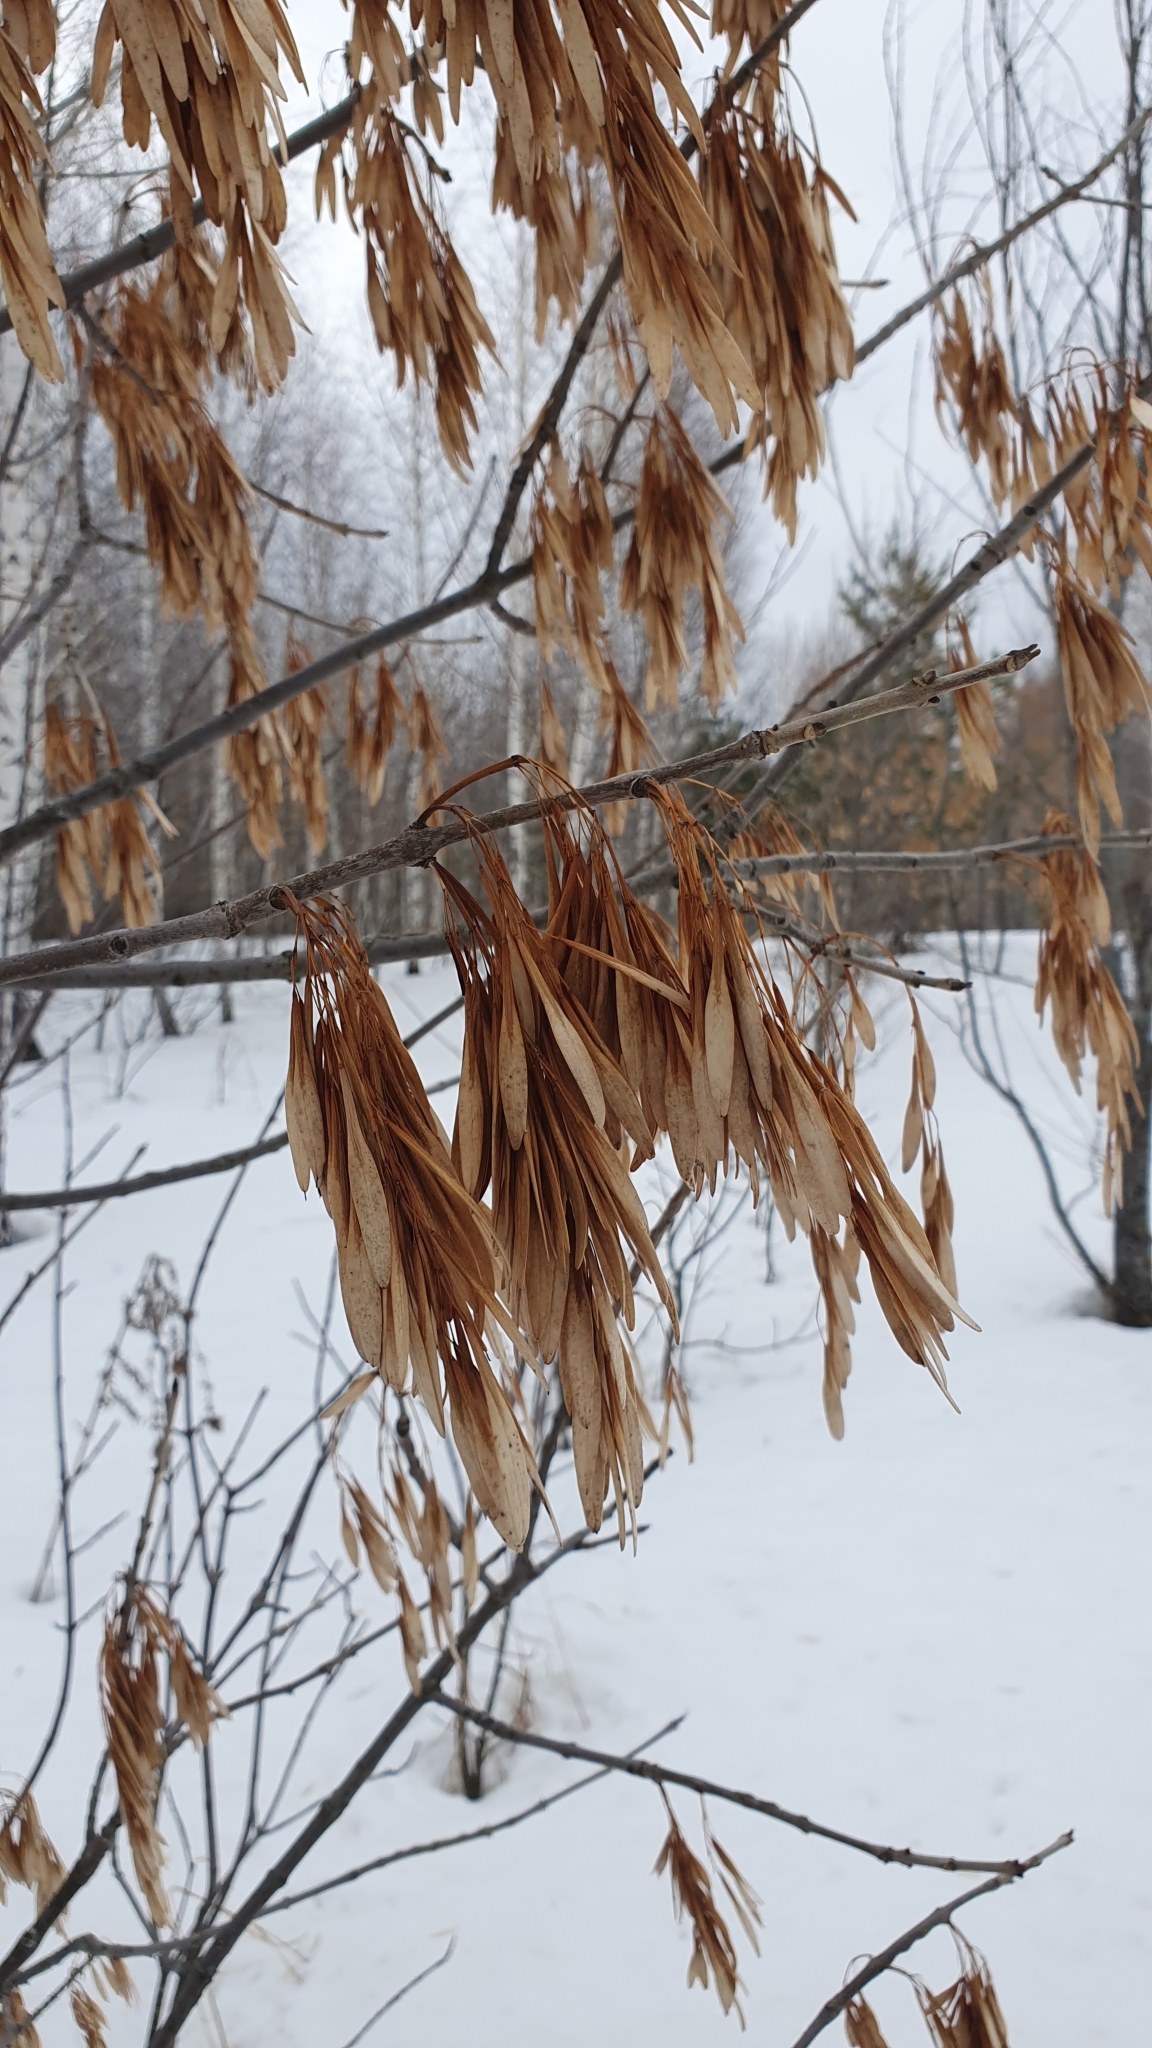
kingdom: Plantae
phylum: Tracheophyta
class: Magnoliopsida
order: Lamiales
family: Oleaceae
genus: Fraxinus
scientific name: Fraxinus pennsylvanica
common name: Green ash
